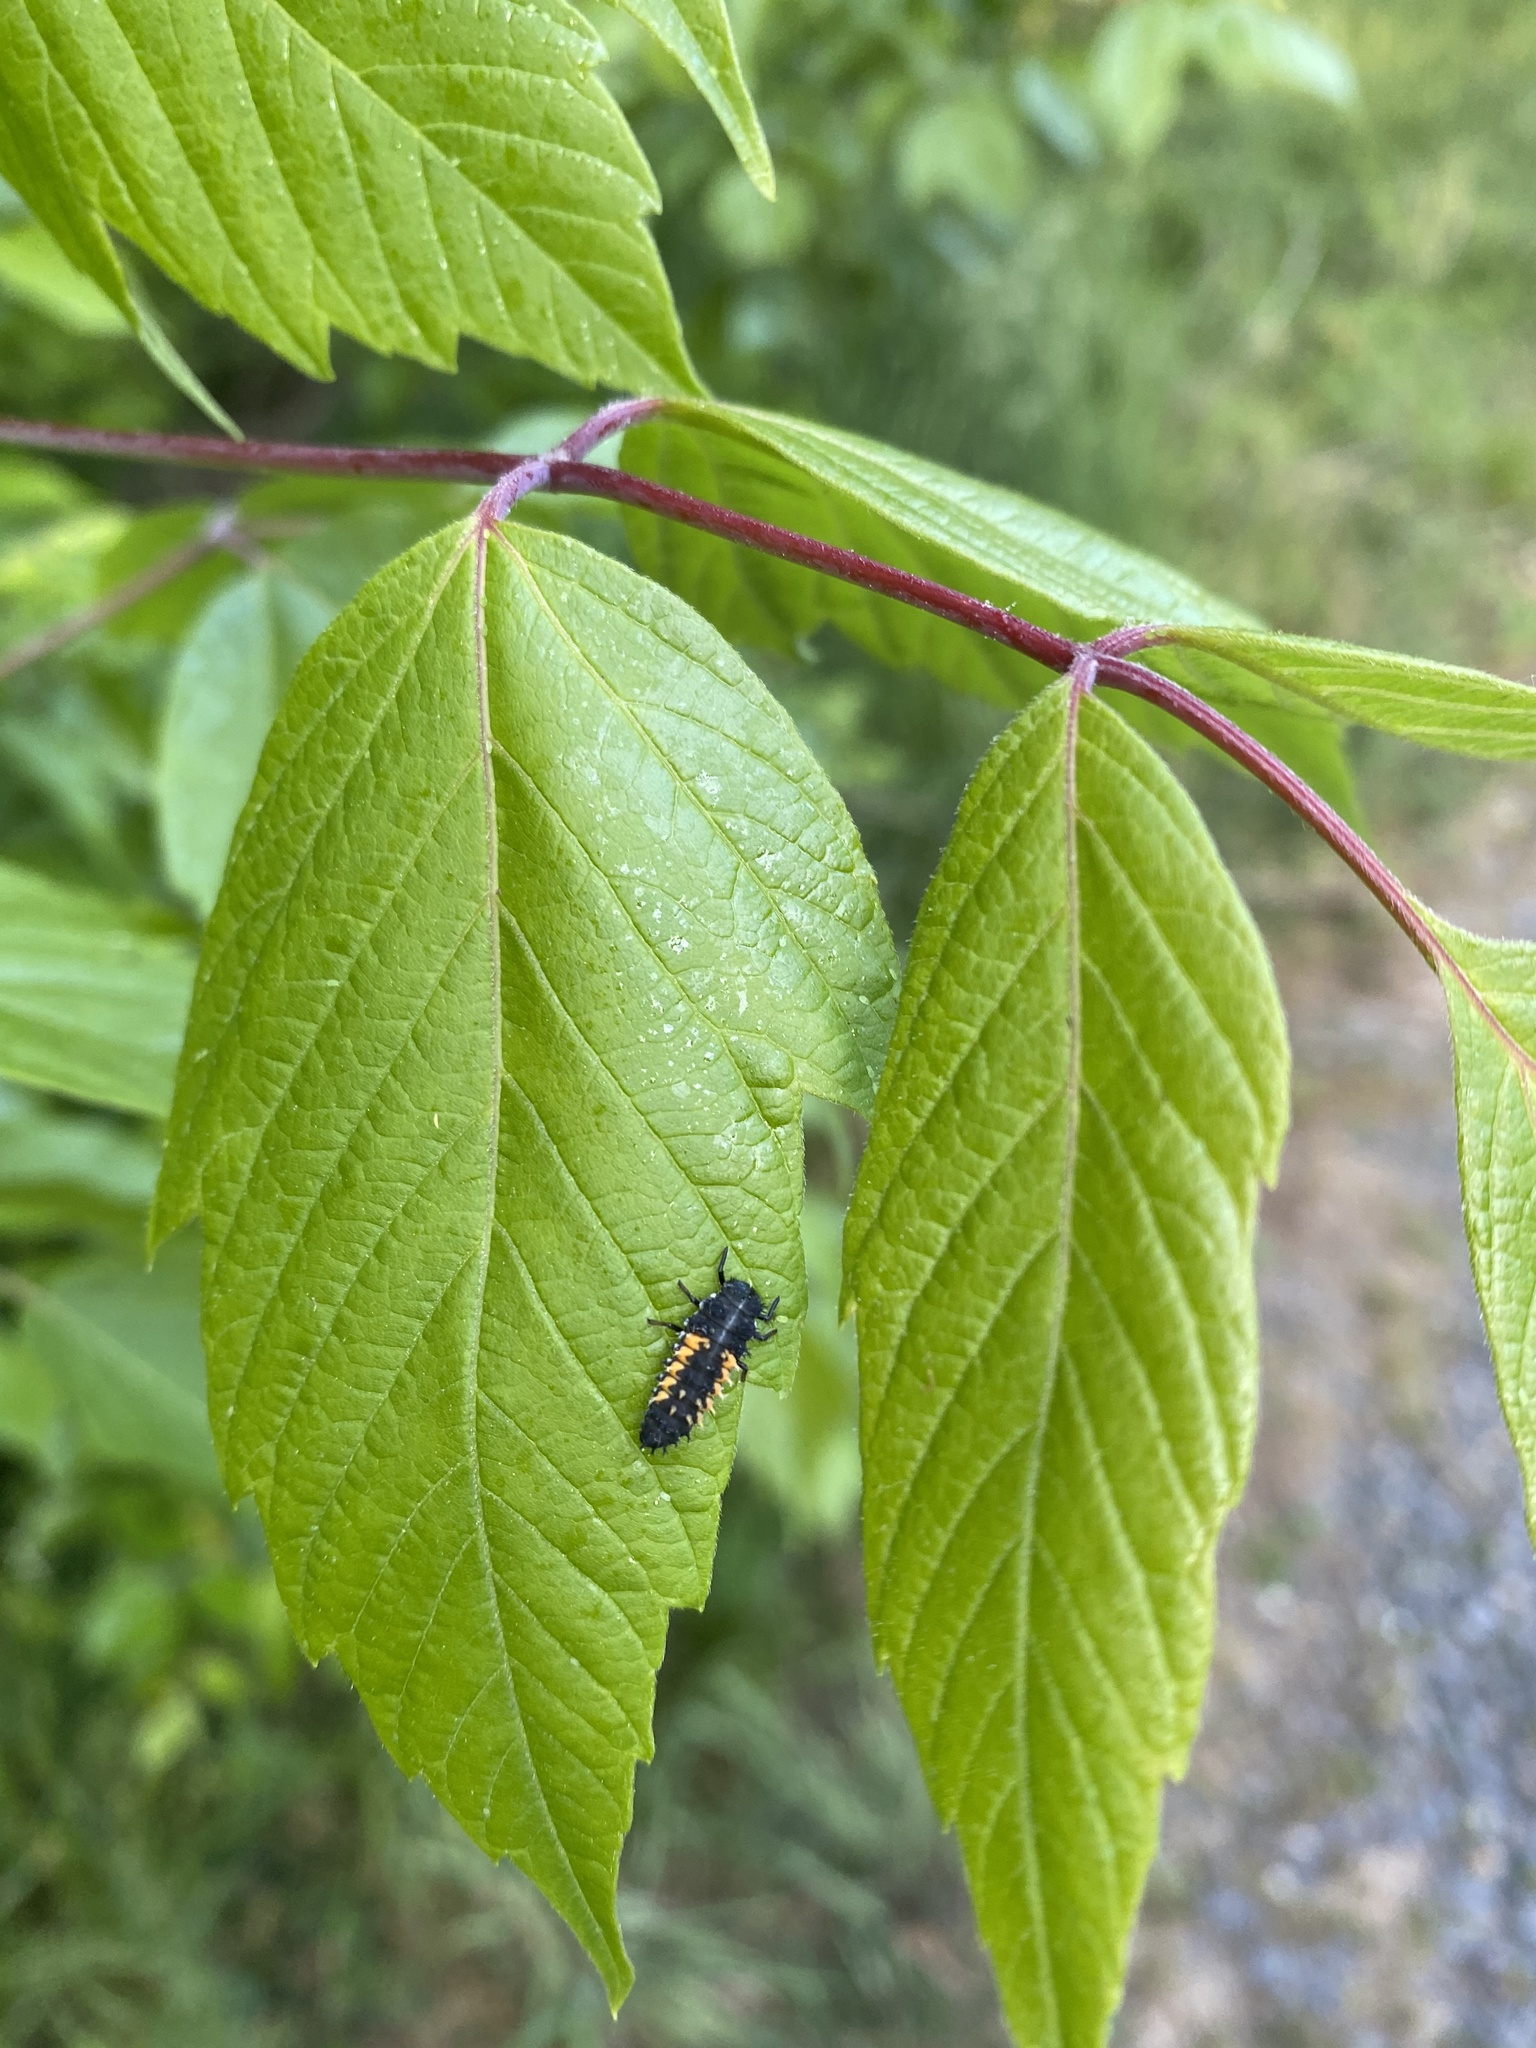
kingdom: Animalia
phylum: Arthropoda
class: Insecta
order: Coleoptera
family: Coccinellidae
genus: Harmonia
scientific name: Harmonia axyridis
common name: Harlequin ladybird
